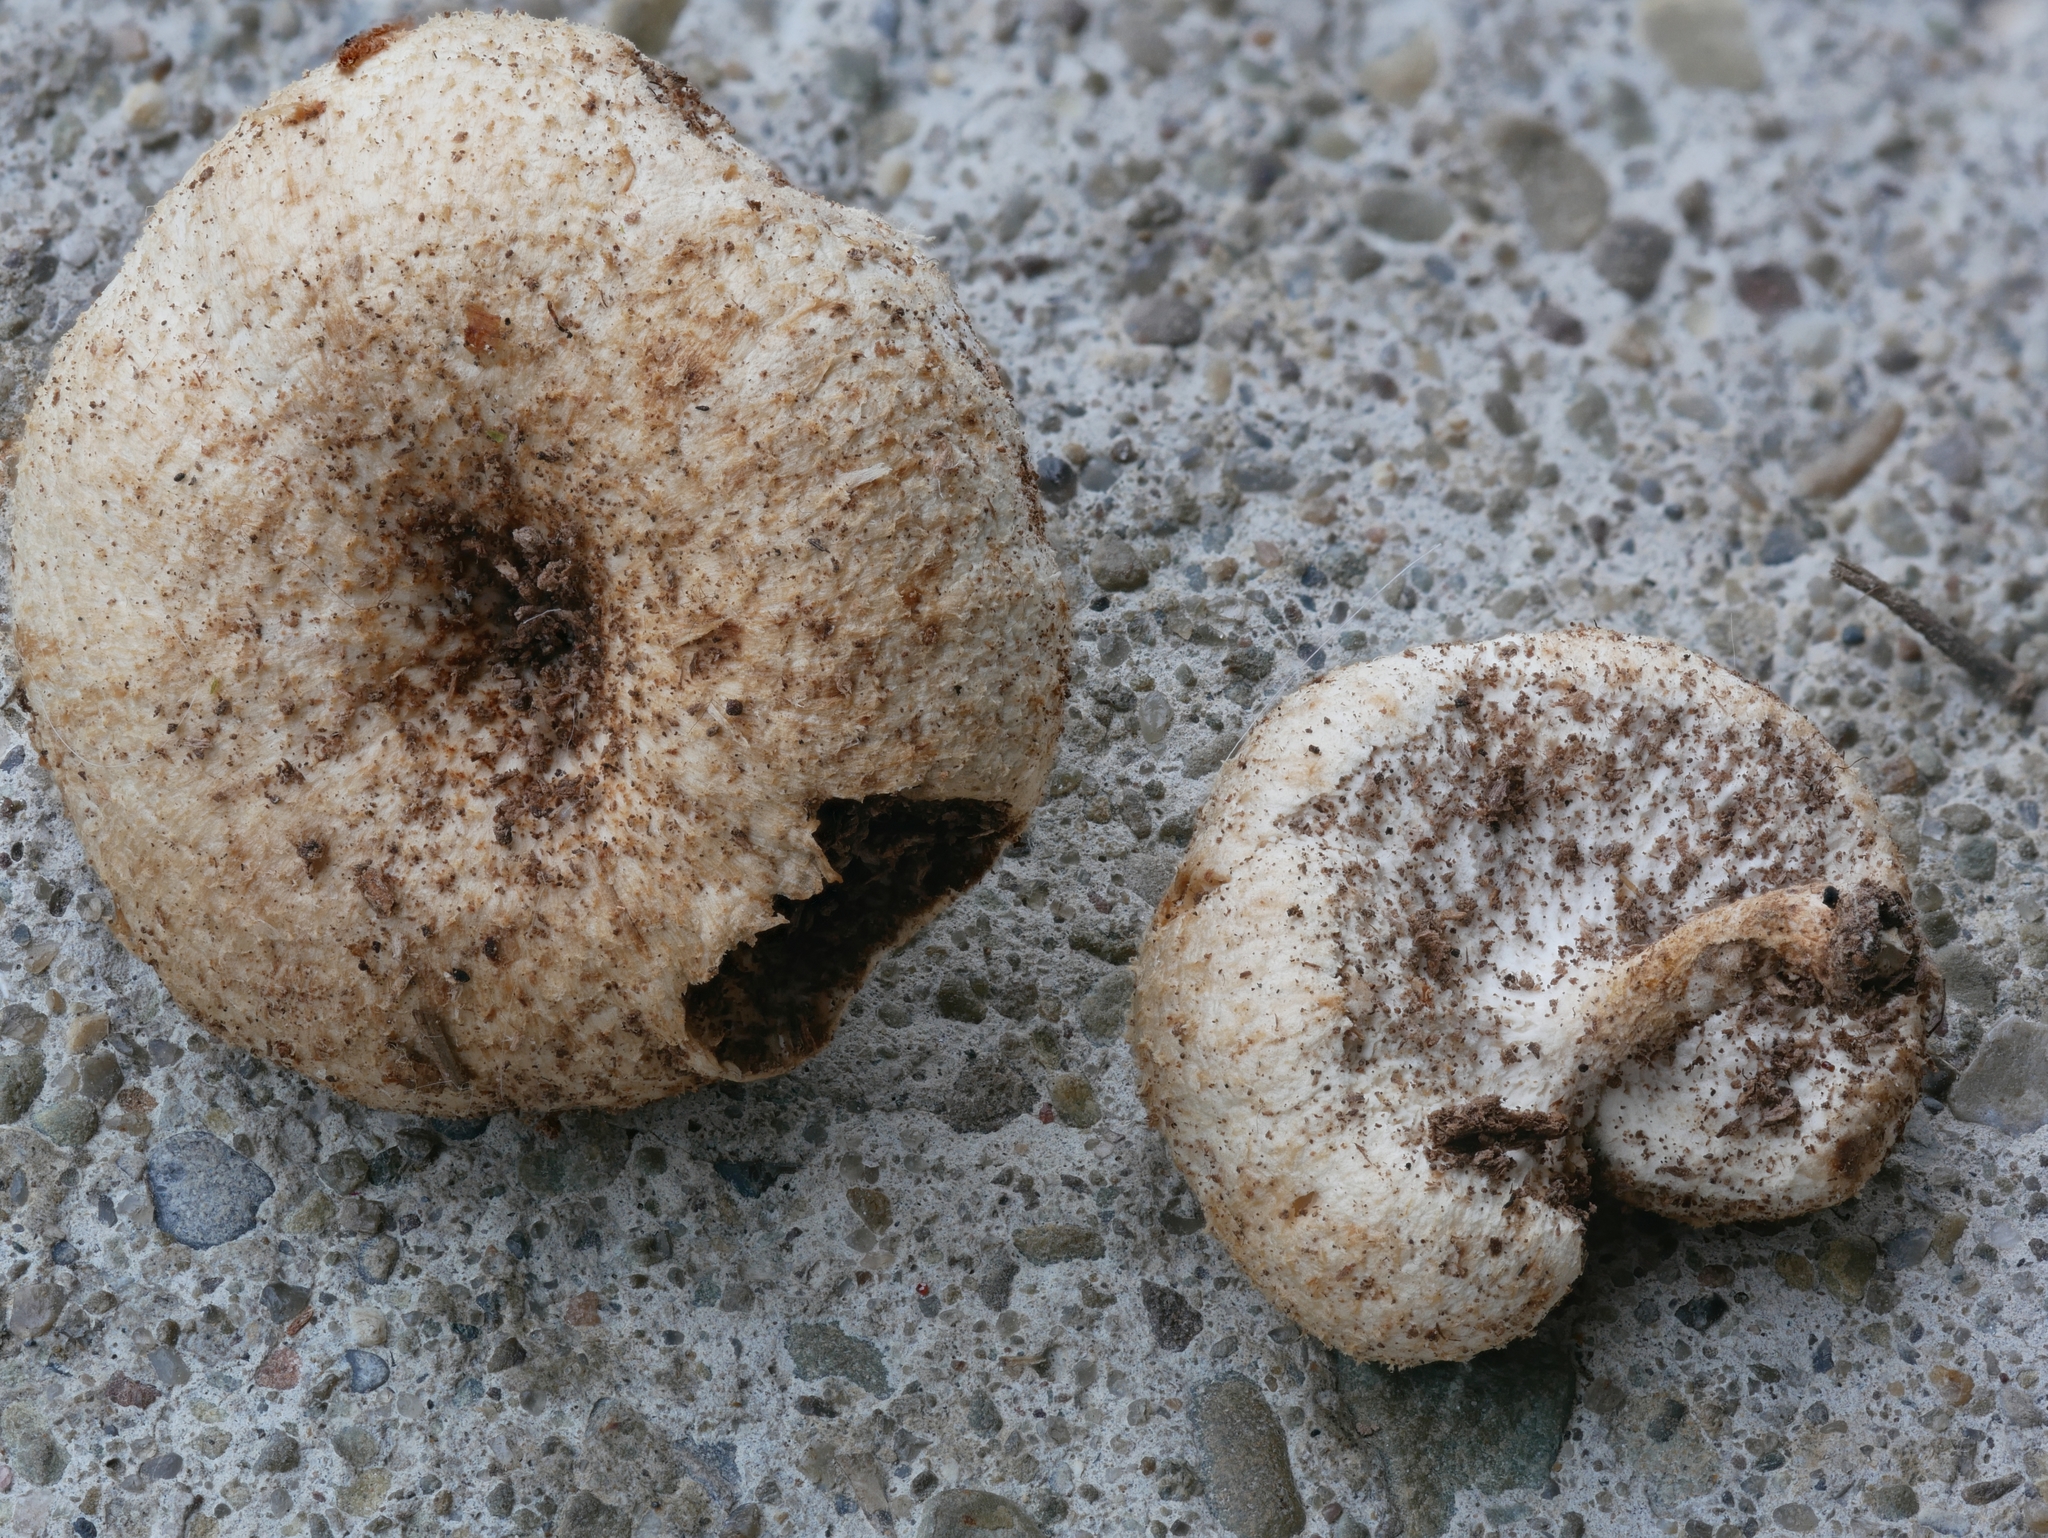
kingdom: Fungi
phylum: Basidiomycota
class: Agaricomycetes
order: Polyporales
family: Polyporaceae
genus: Lentinus
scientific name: Lentinus tigrinus
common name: Tiger sawgill
